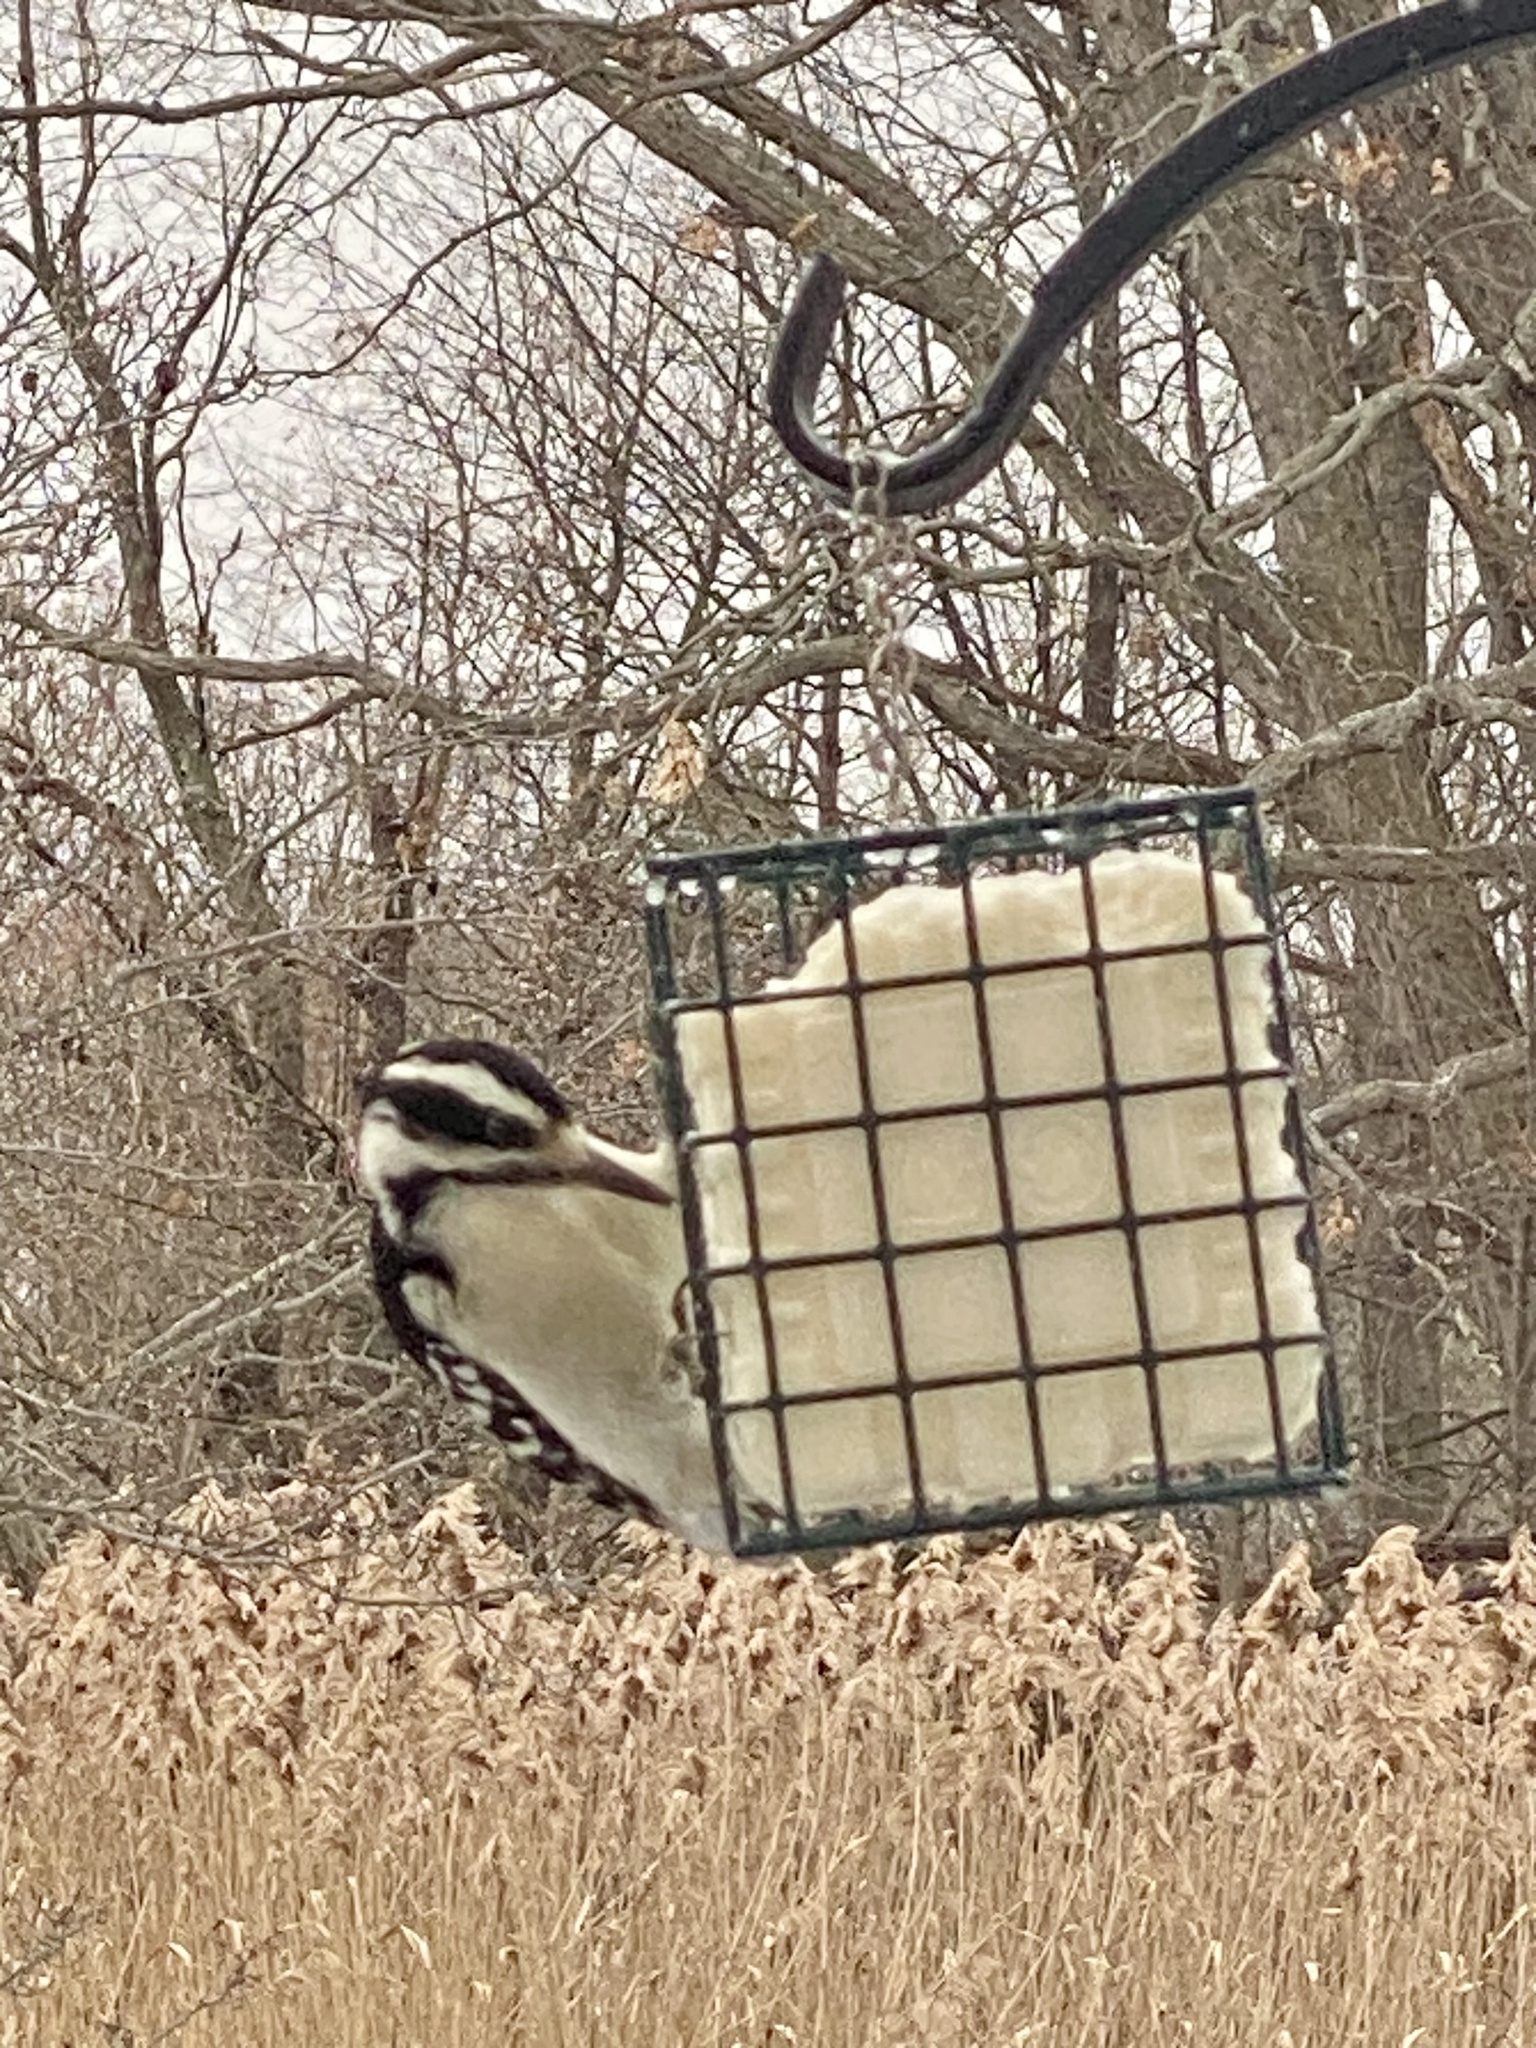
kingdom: Animalia
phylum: Chordata
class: Aves
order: Piciformes
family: Picidae
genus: Leuconotopicus
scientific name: Leuconotopicus villosus
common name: Hairy woodpecker
